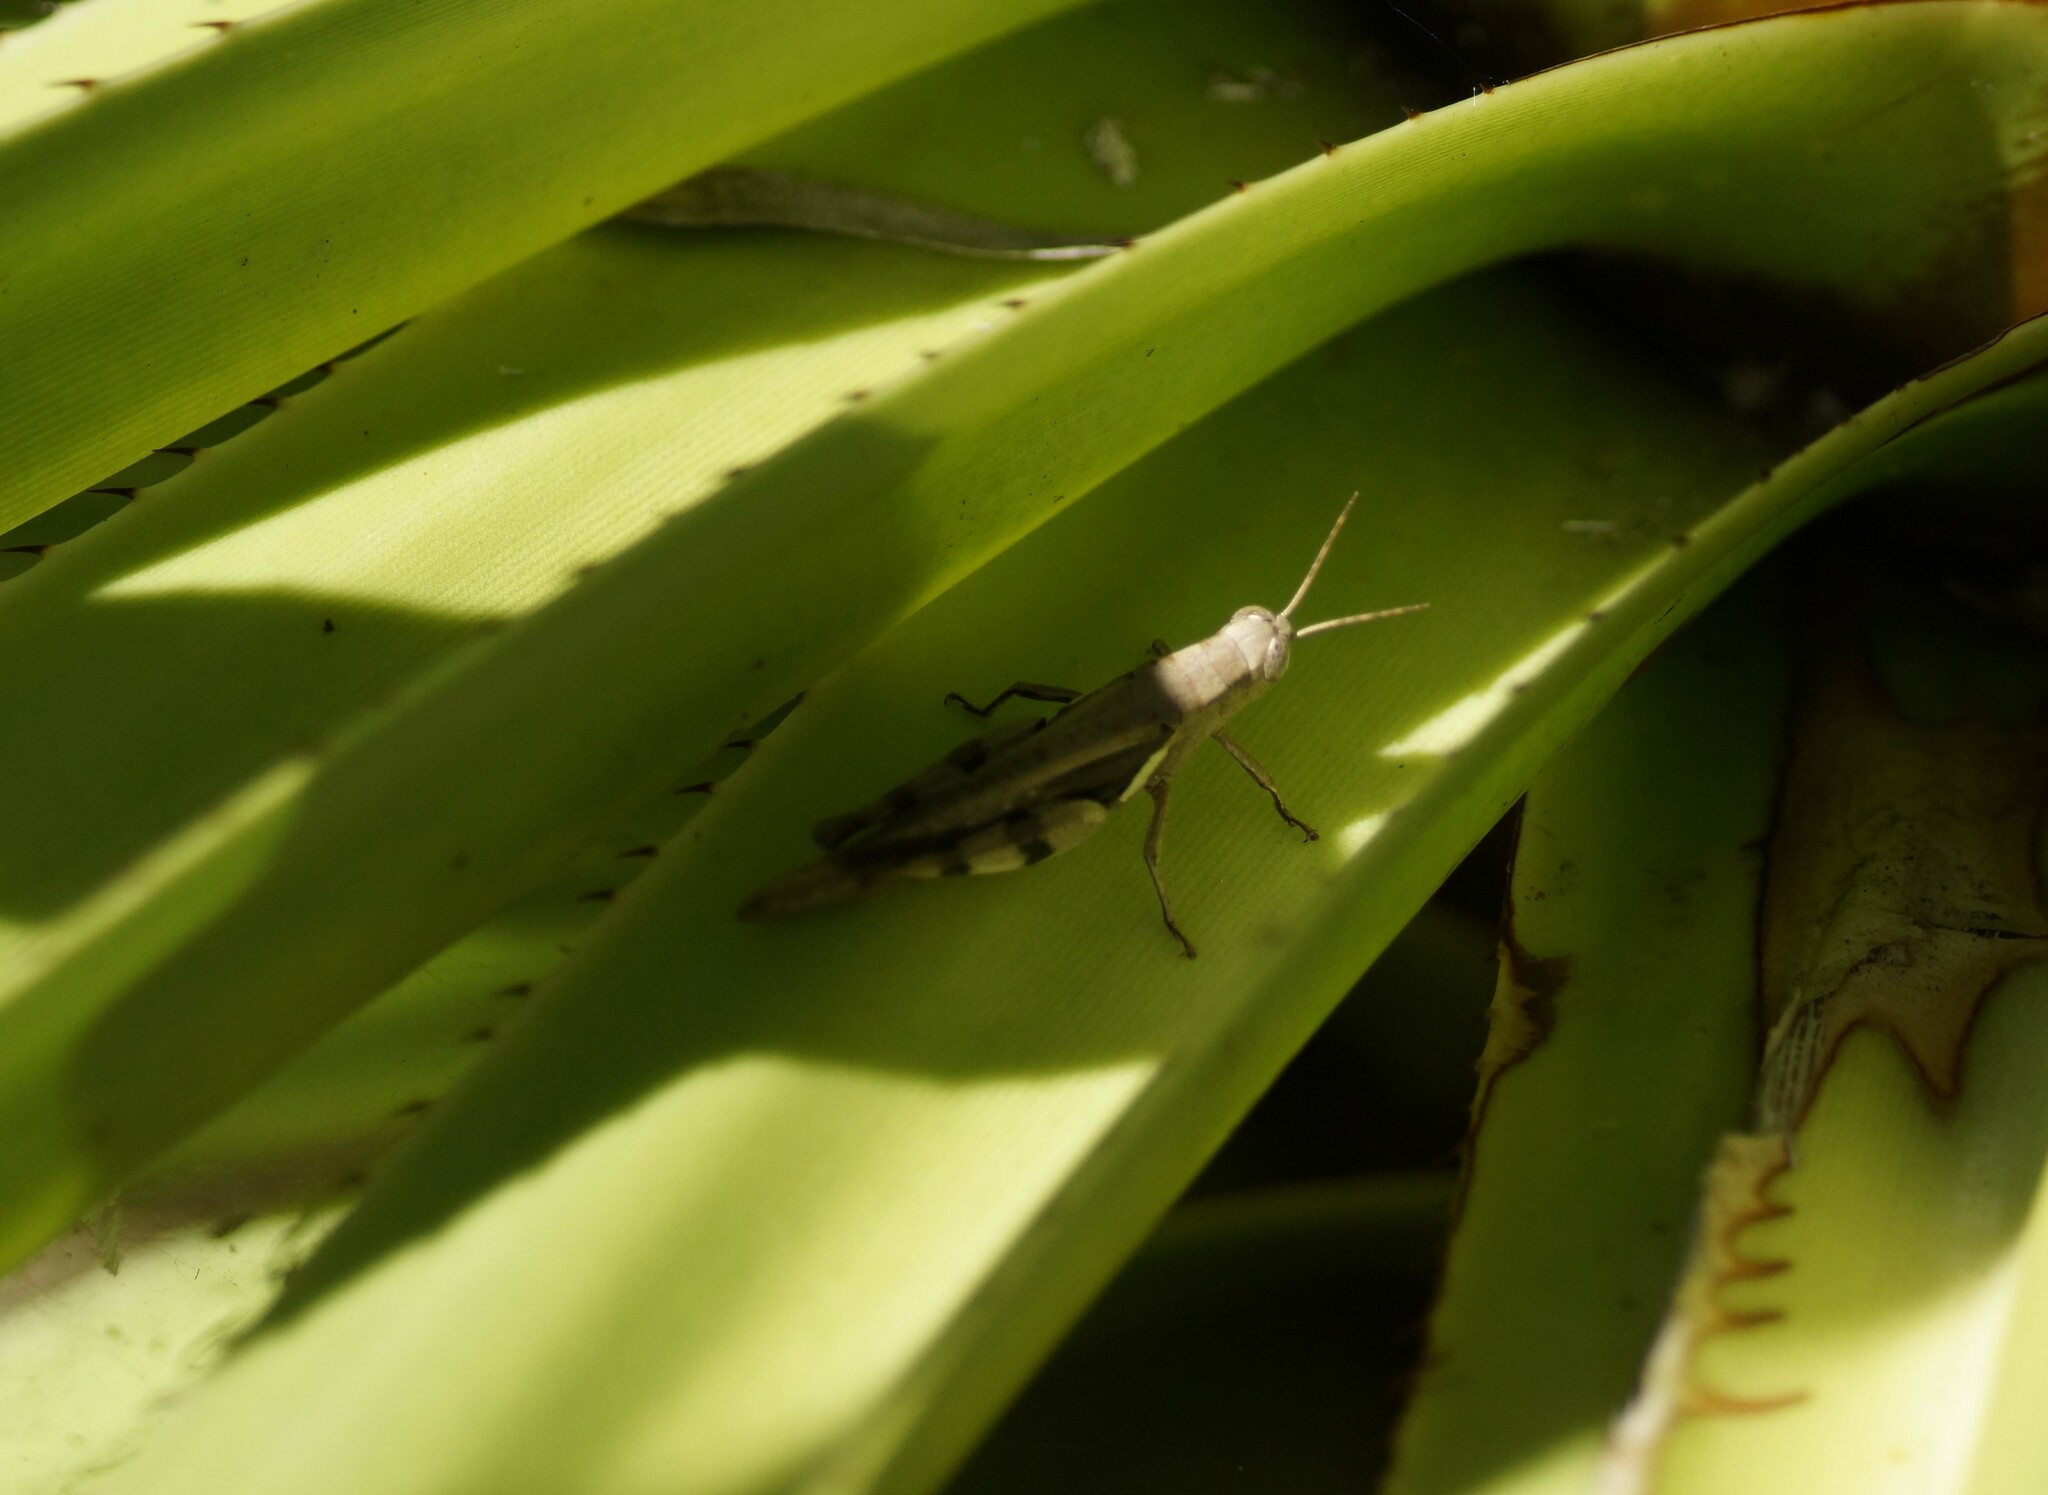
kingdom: Animalia
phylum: Arthropoda
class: Insecta
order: Orthoptera
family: Acrididae
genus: Stenocatantops
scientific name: Stenocatantops angustifrons
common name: Common tropical sharptail
